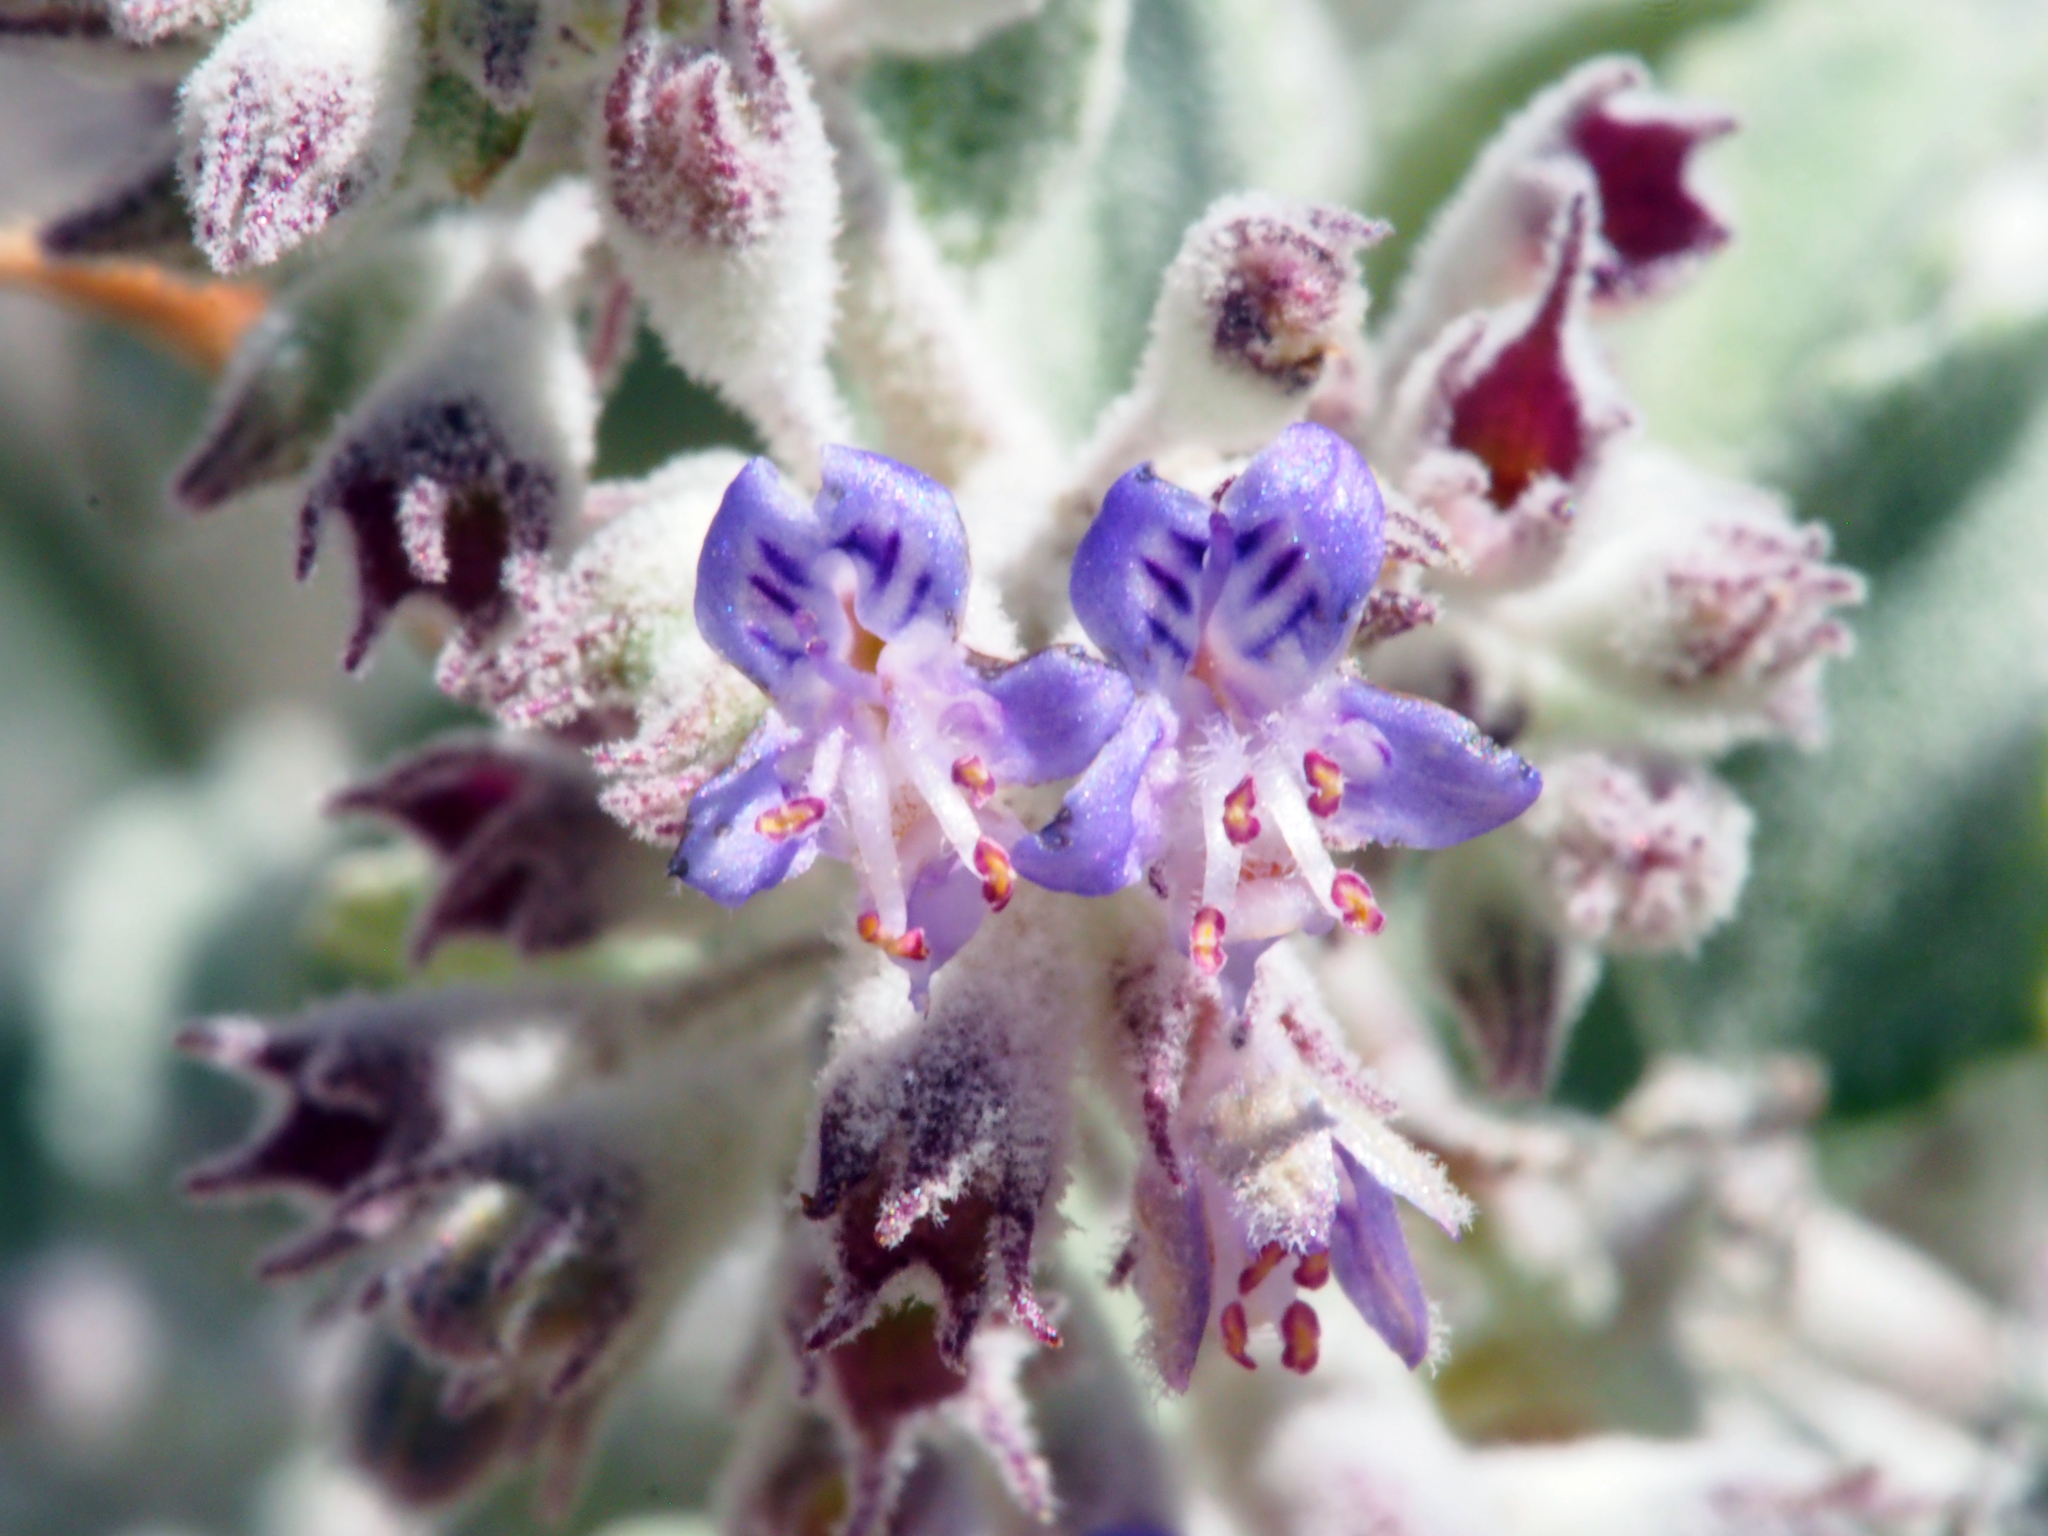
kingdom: Plantae
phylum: Tracheophyta
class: Magnoliopsida
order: Lamiales
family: Lamiaceae
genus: Condea
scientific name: Condea emoryi
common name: Chia
